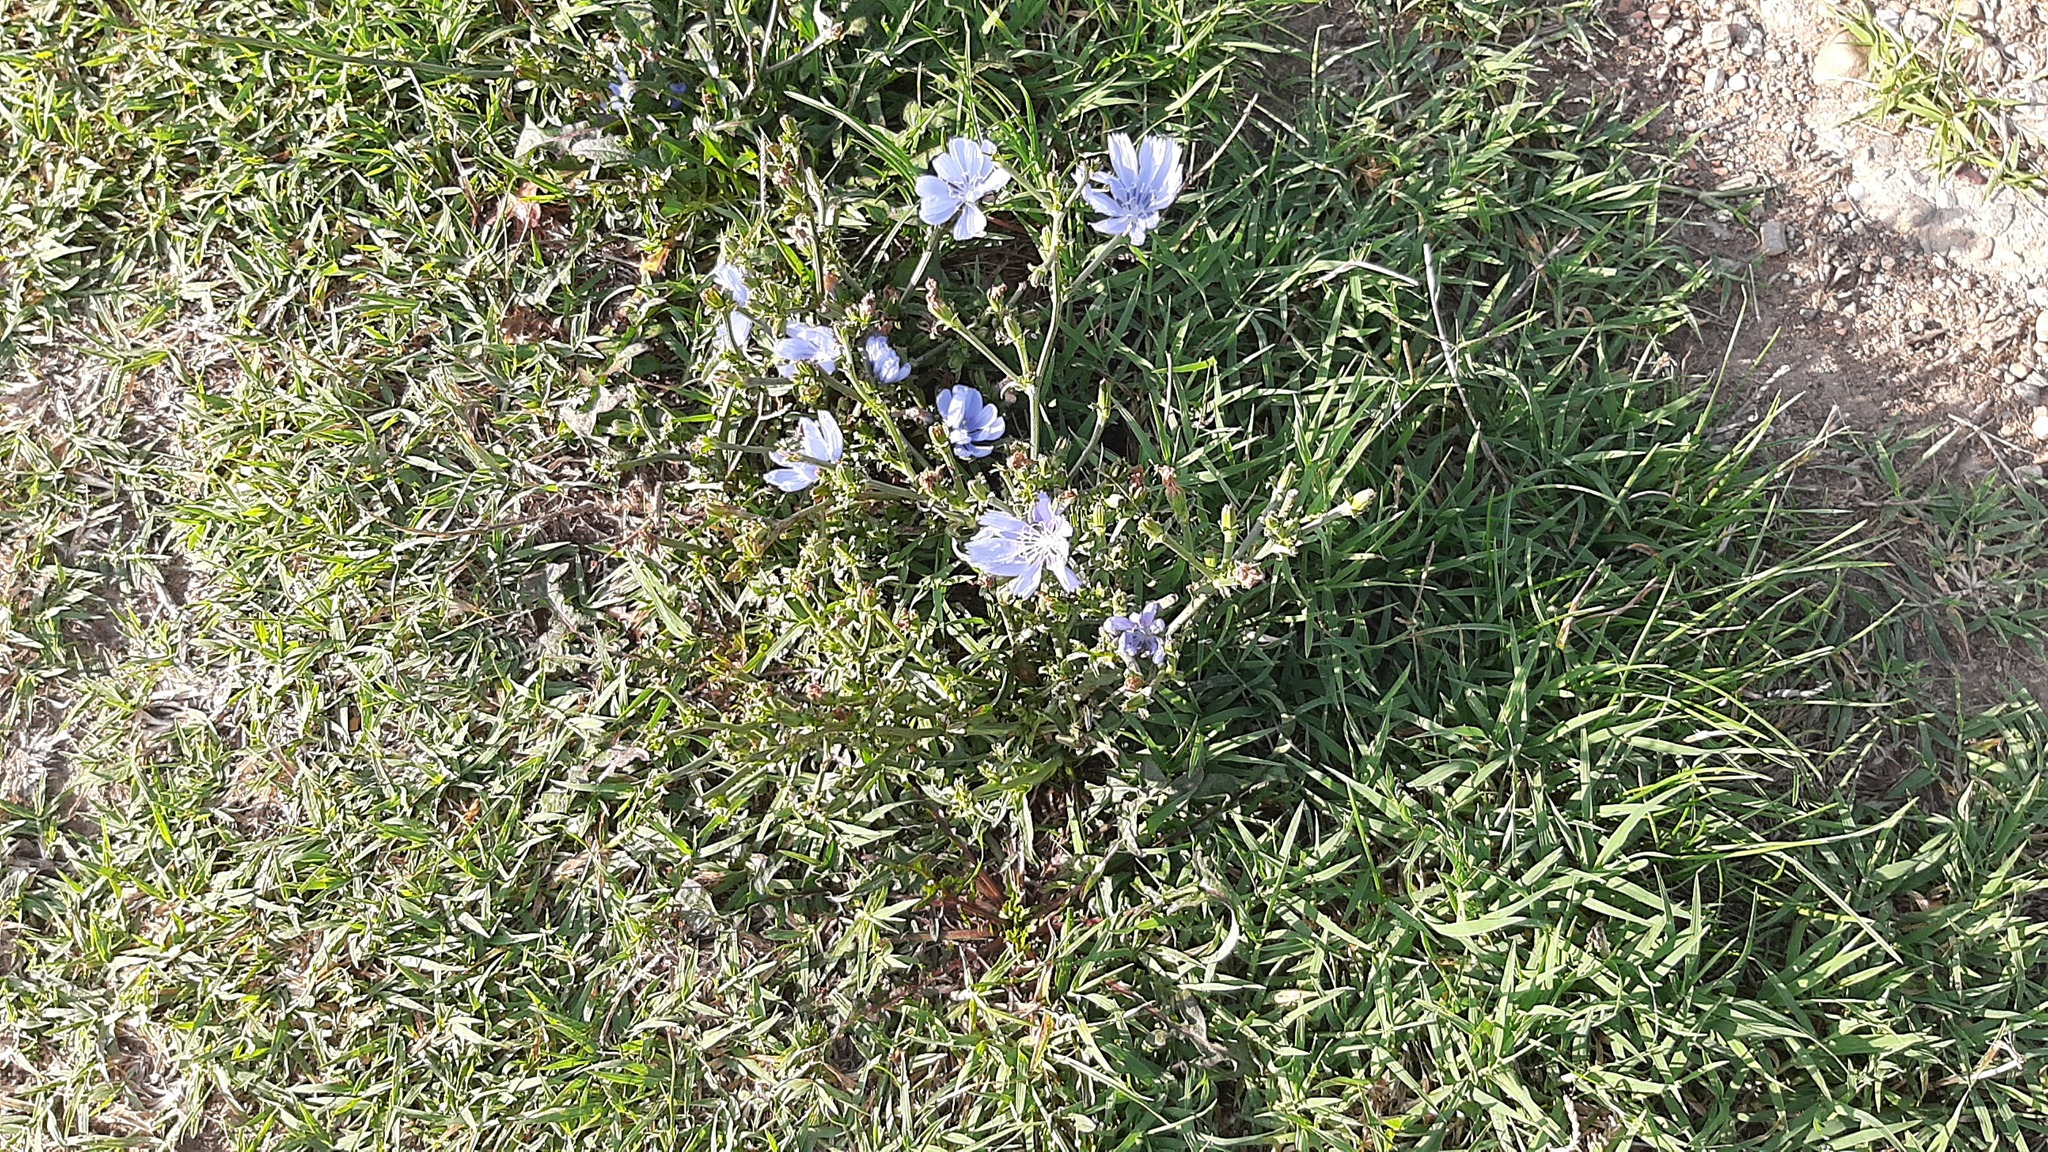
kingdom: Plantae
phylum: Tracheophyta
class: Magnoliopsida
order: Asterales
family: Asteraceae
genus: Cichorium
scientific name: Cichorium intybus
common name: Chicory
